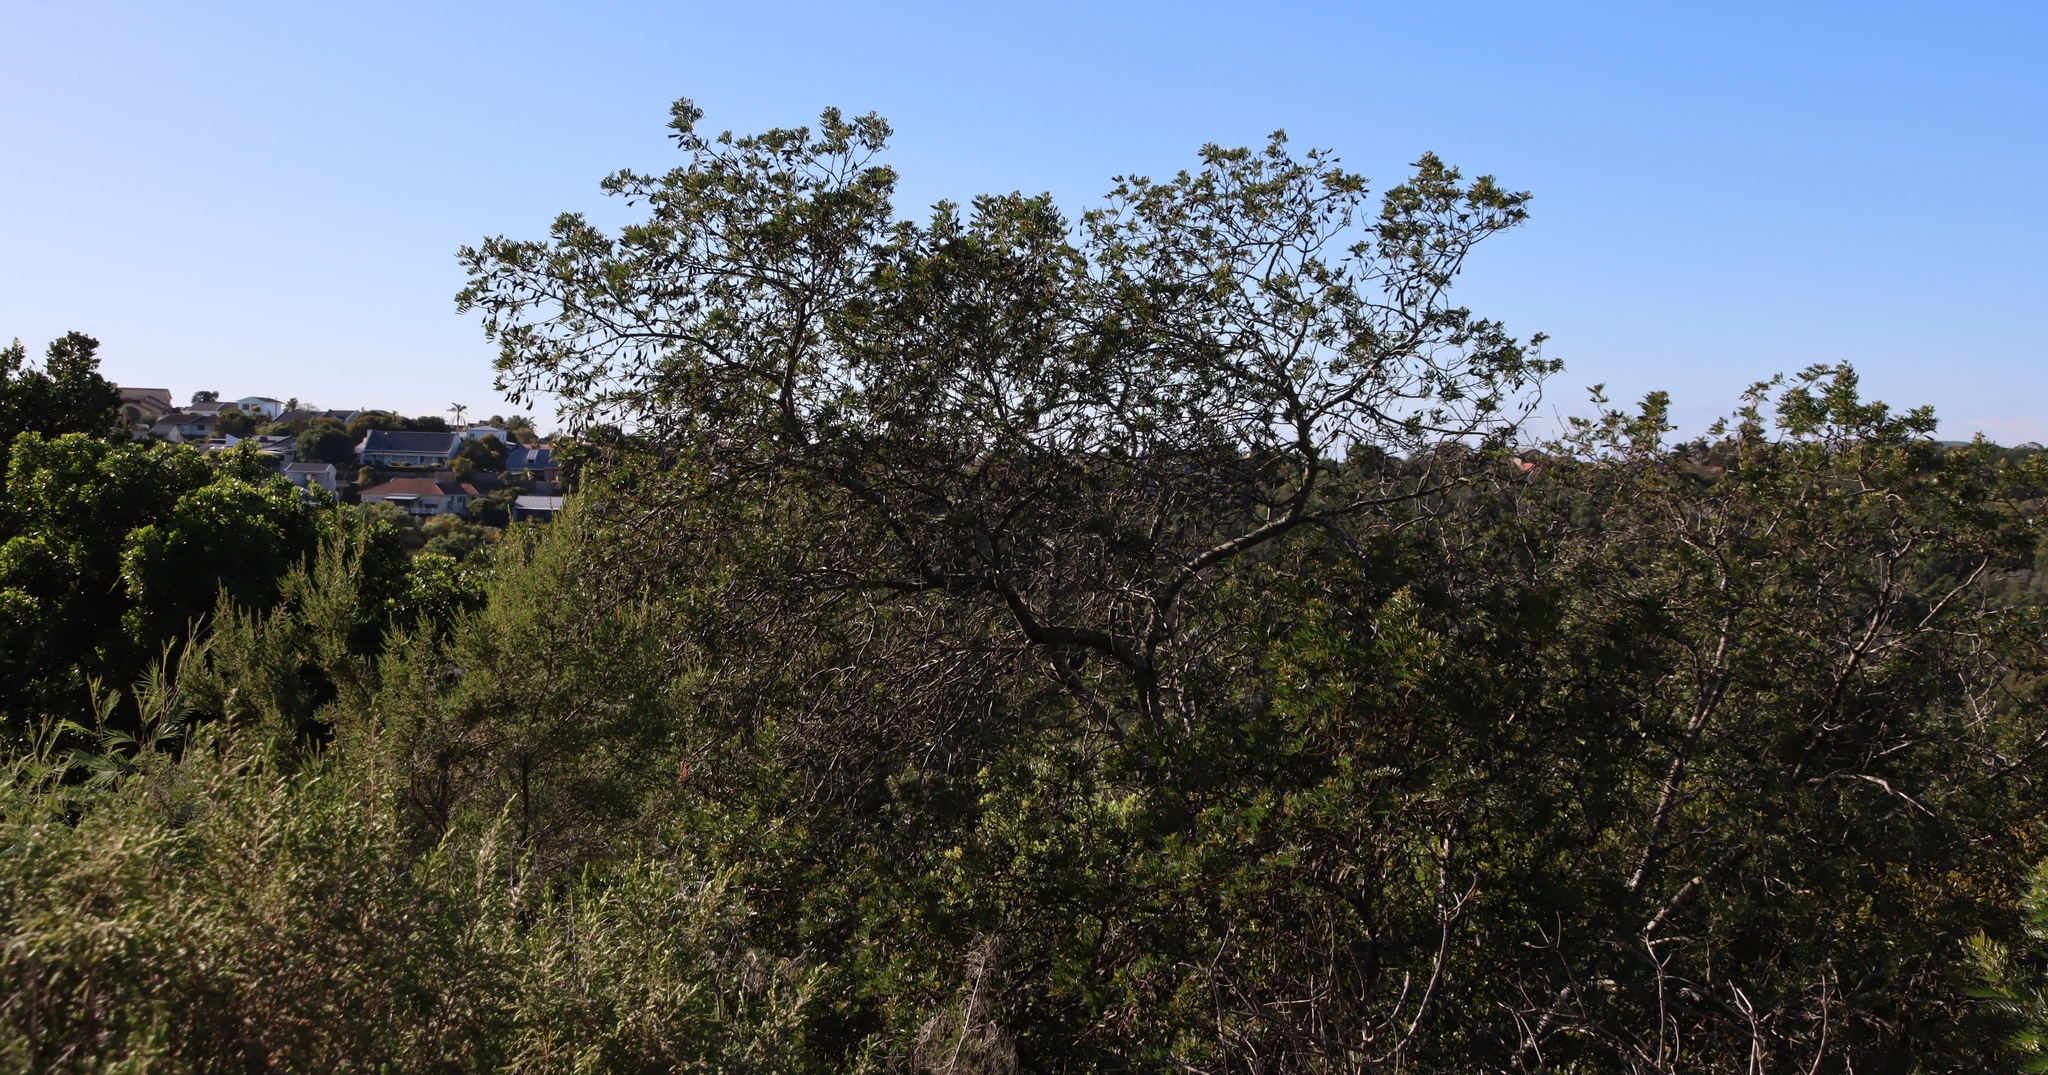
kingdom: Plantae
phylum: Tracheophyta
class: Magnoliopsida
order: Fabales
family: Fabaceae
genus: Virgilia
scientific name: Virgilia divaricata
